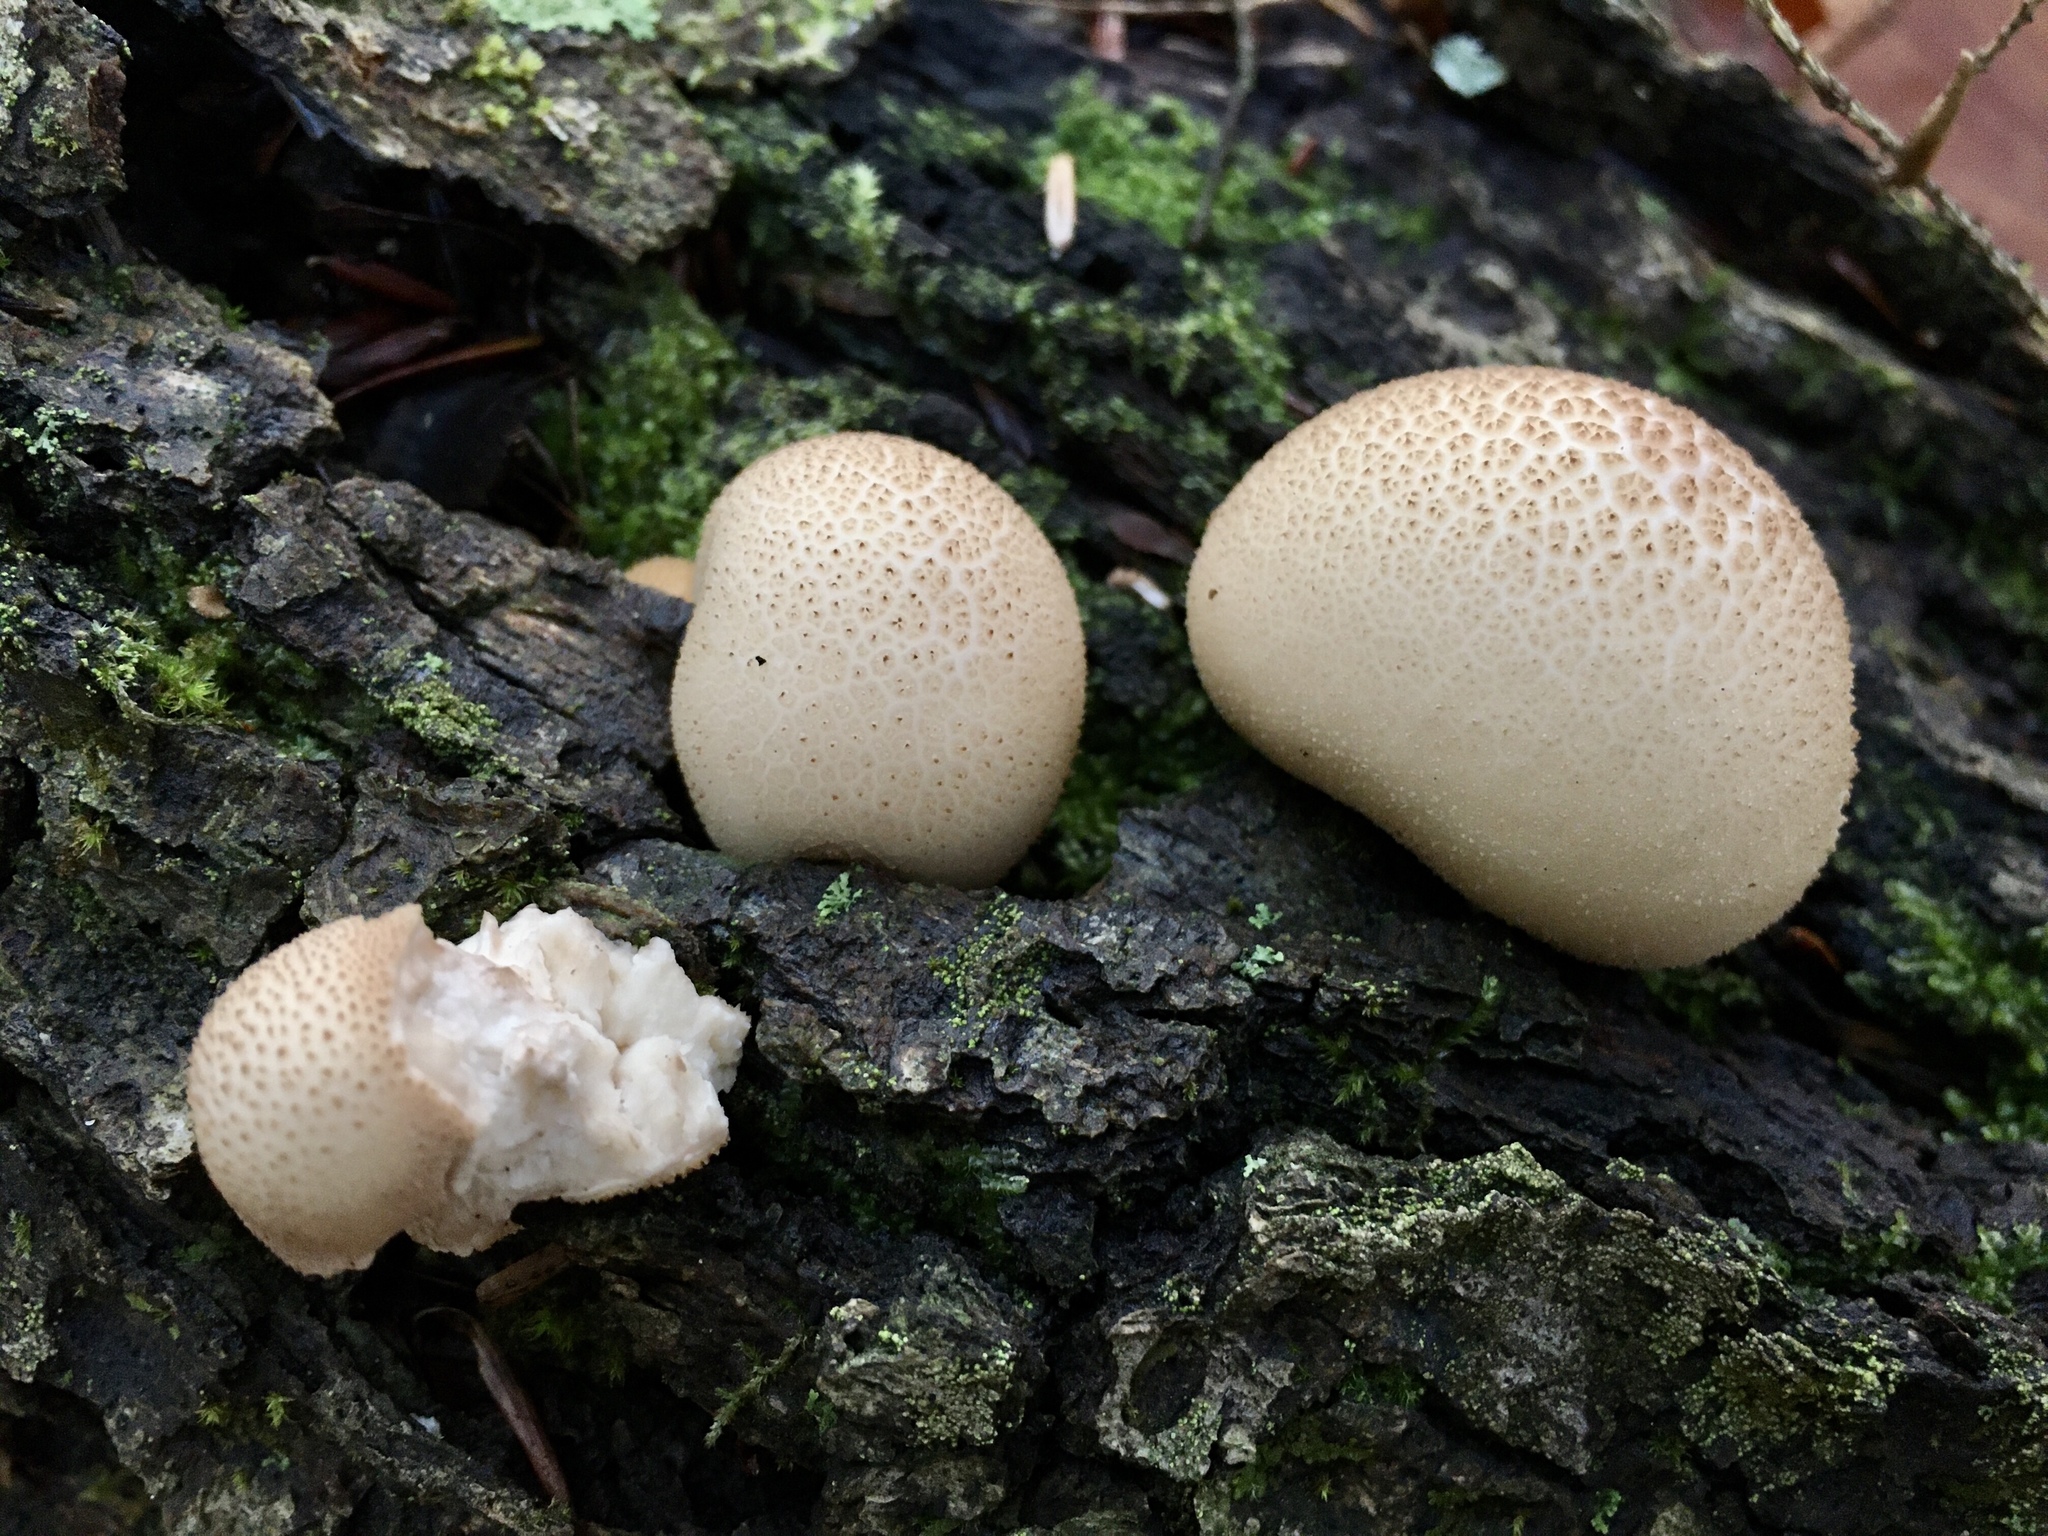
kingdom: Fungi
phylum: Basidiomycota
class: Agaricomycetes
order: Agaricales
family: Lycoperdaceae
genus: Apioperdon
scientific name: Apioperdon pyriforme
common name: Pear-shaped puffball
